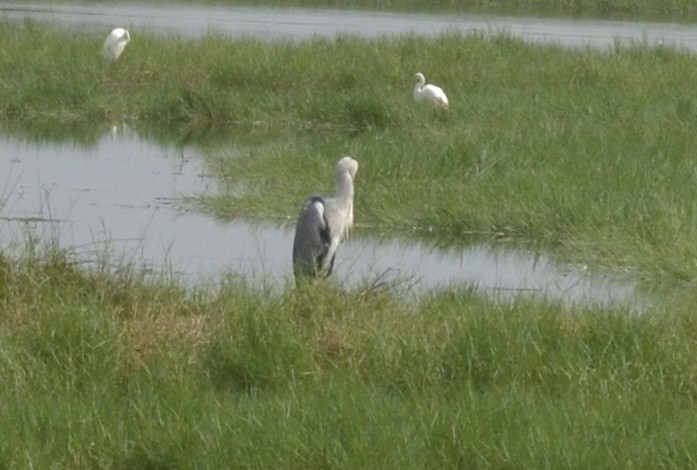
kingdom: Animalia
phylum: Chordata
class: Aves
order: Pelecaniformes
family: Ardeidae
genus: Ardea
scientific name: Ardea cinerea
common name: Grey heron
